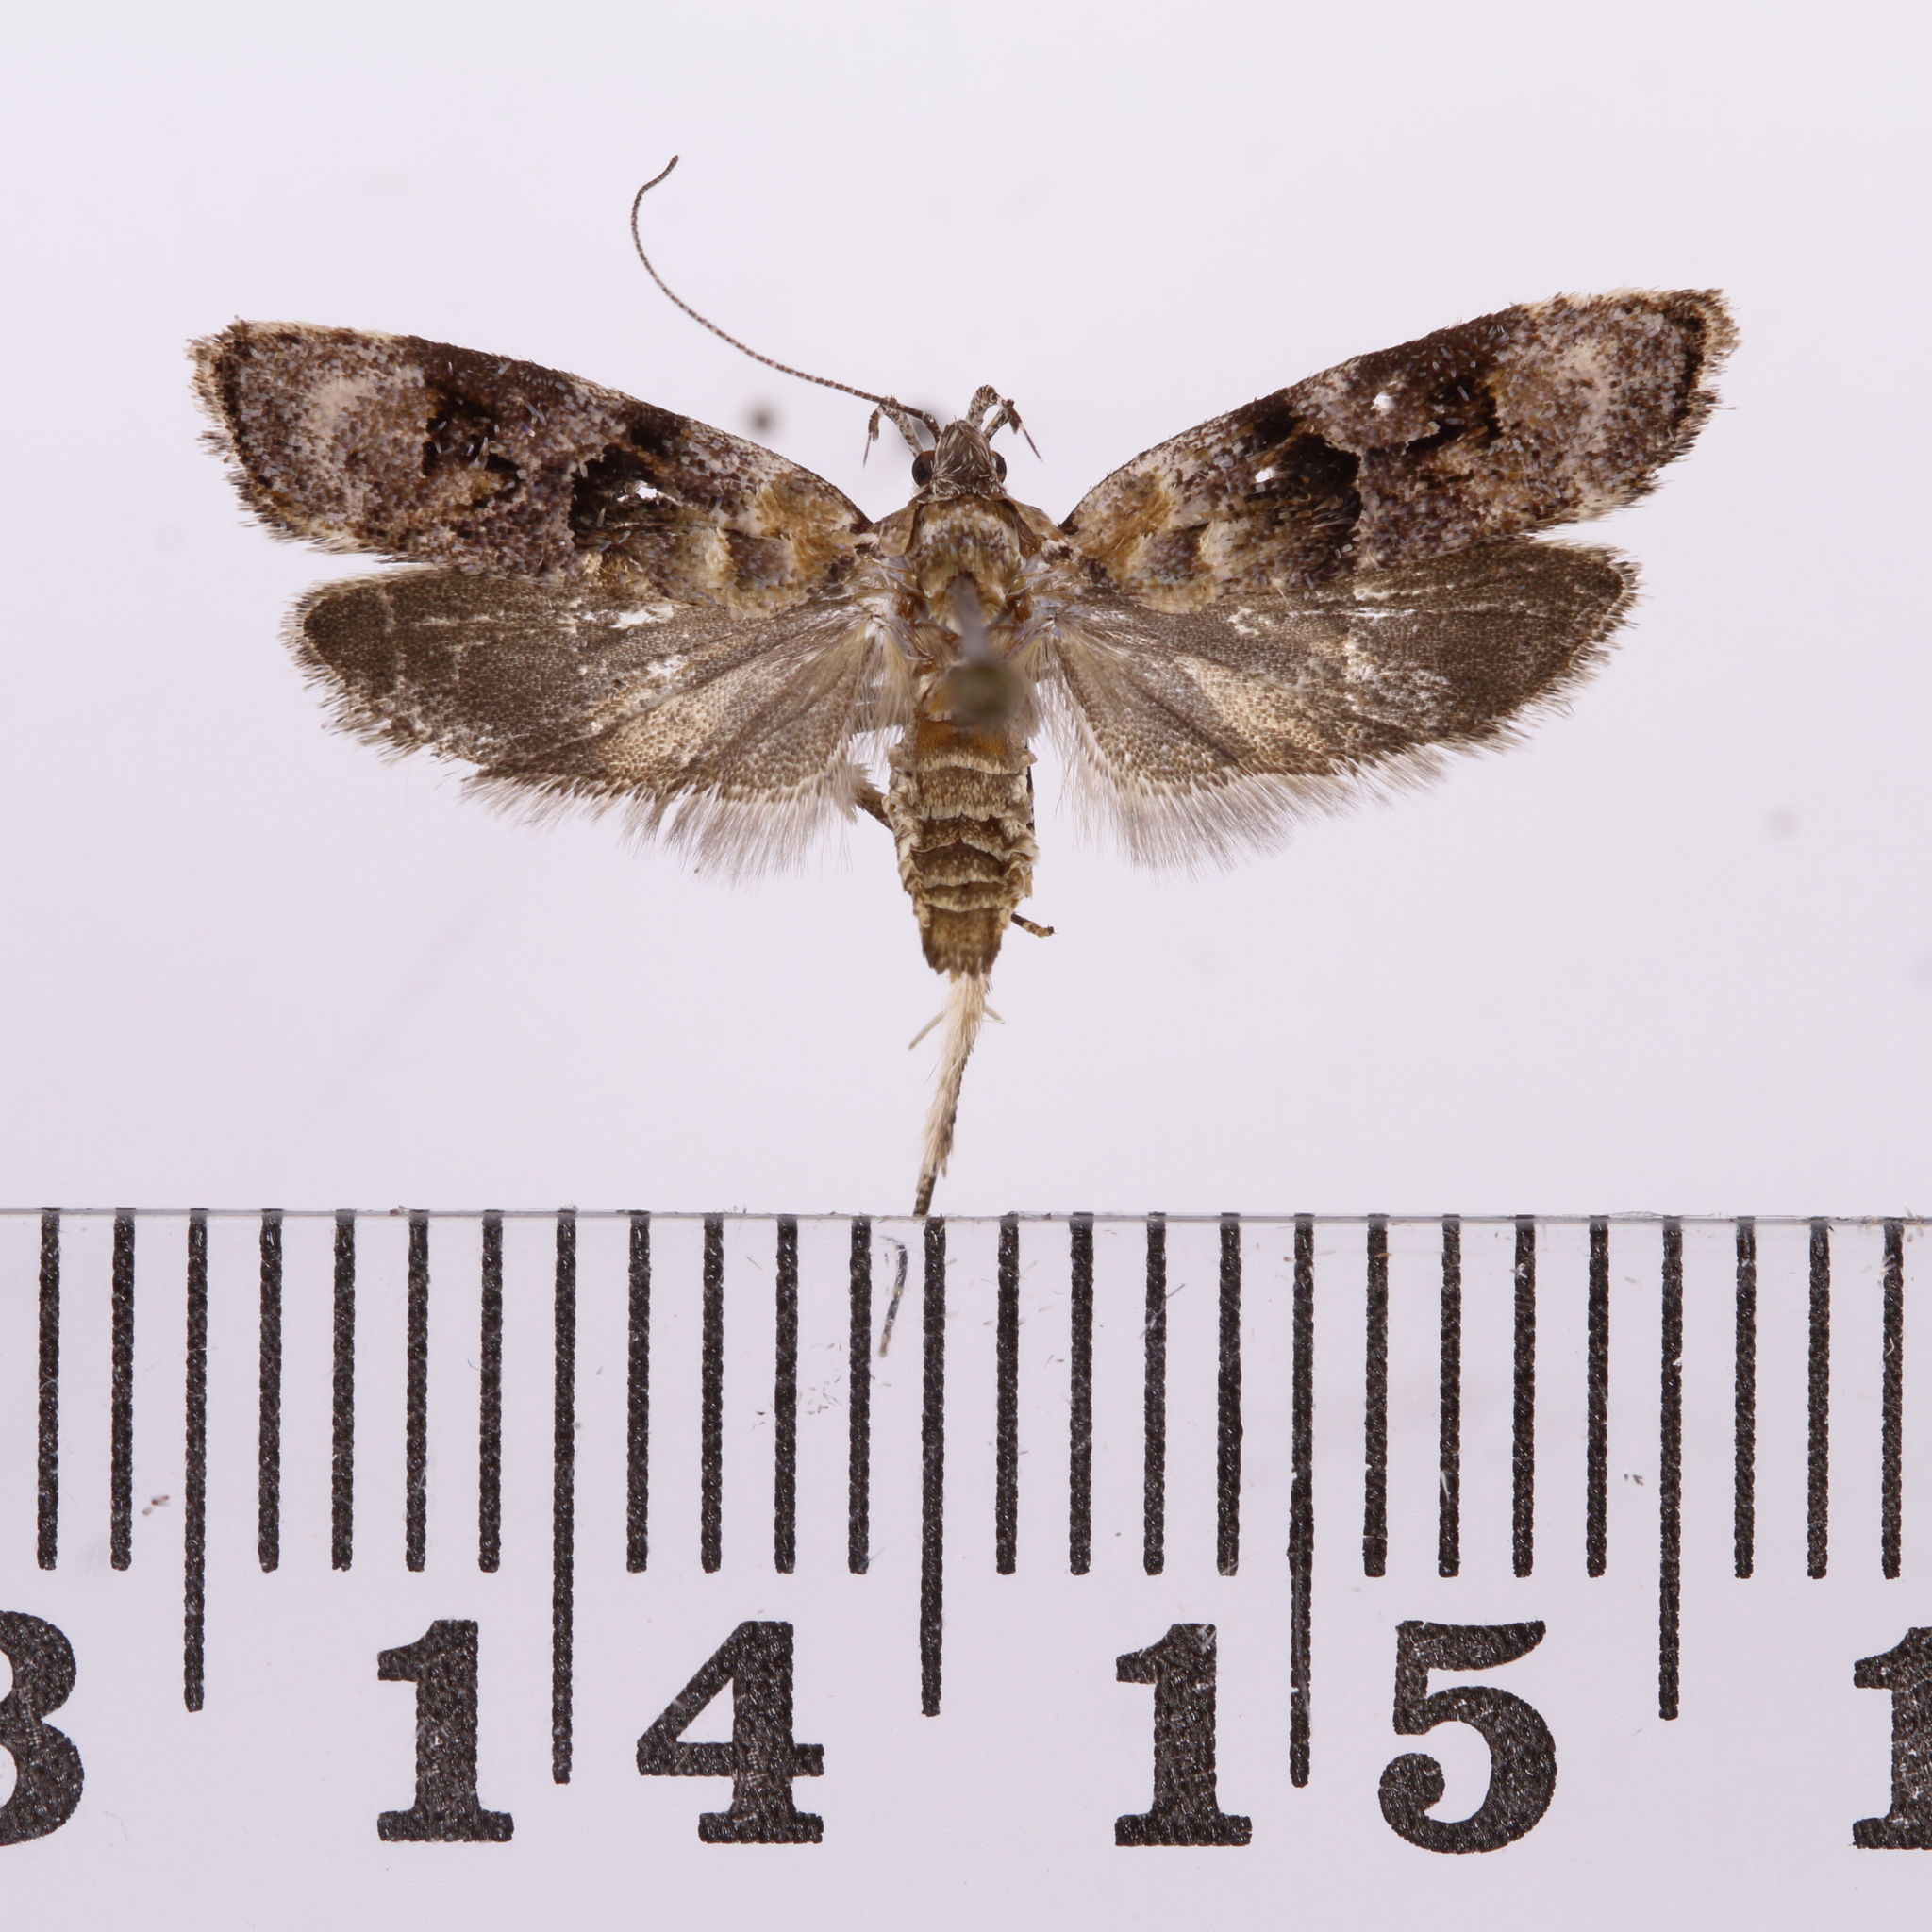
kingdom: Animalia
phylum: Arthropoda
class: Insecta
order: Lepidoptera
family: Oecophoridae
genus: Izatha
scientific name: Izatha metadelta
